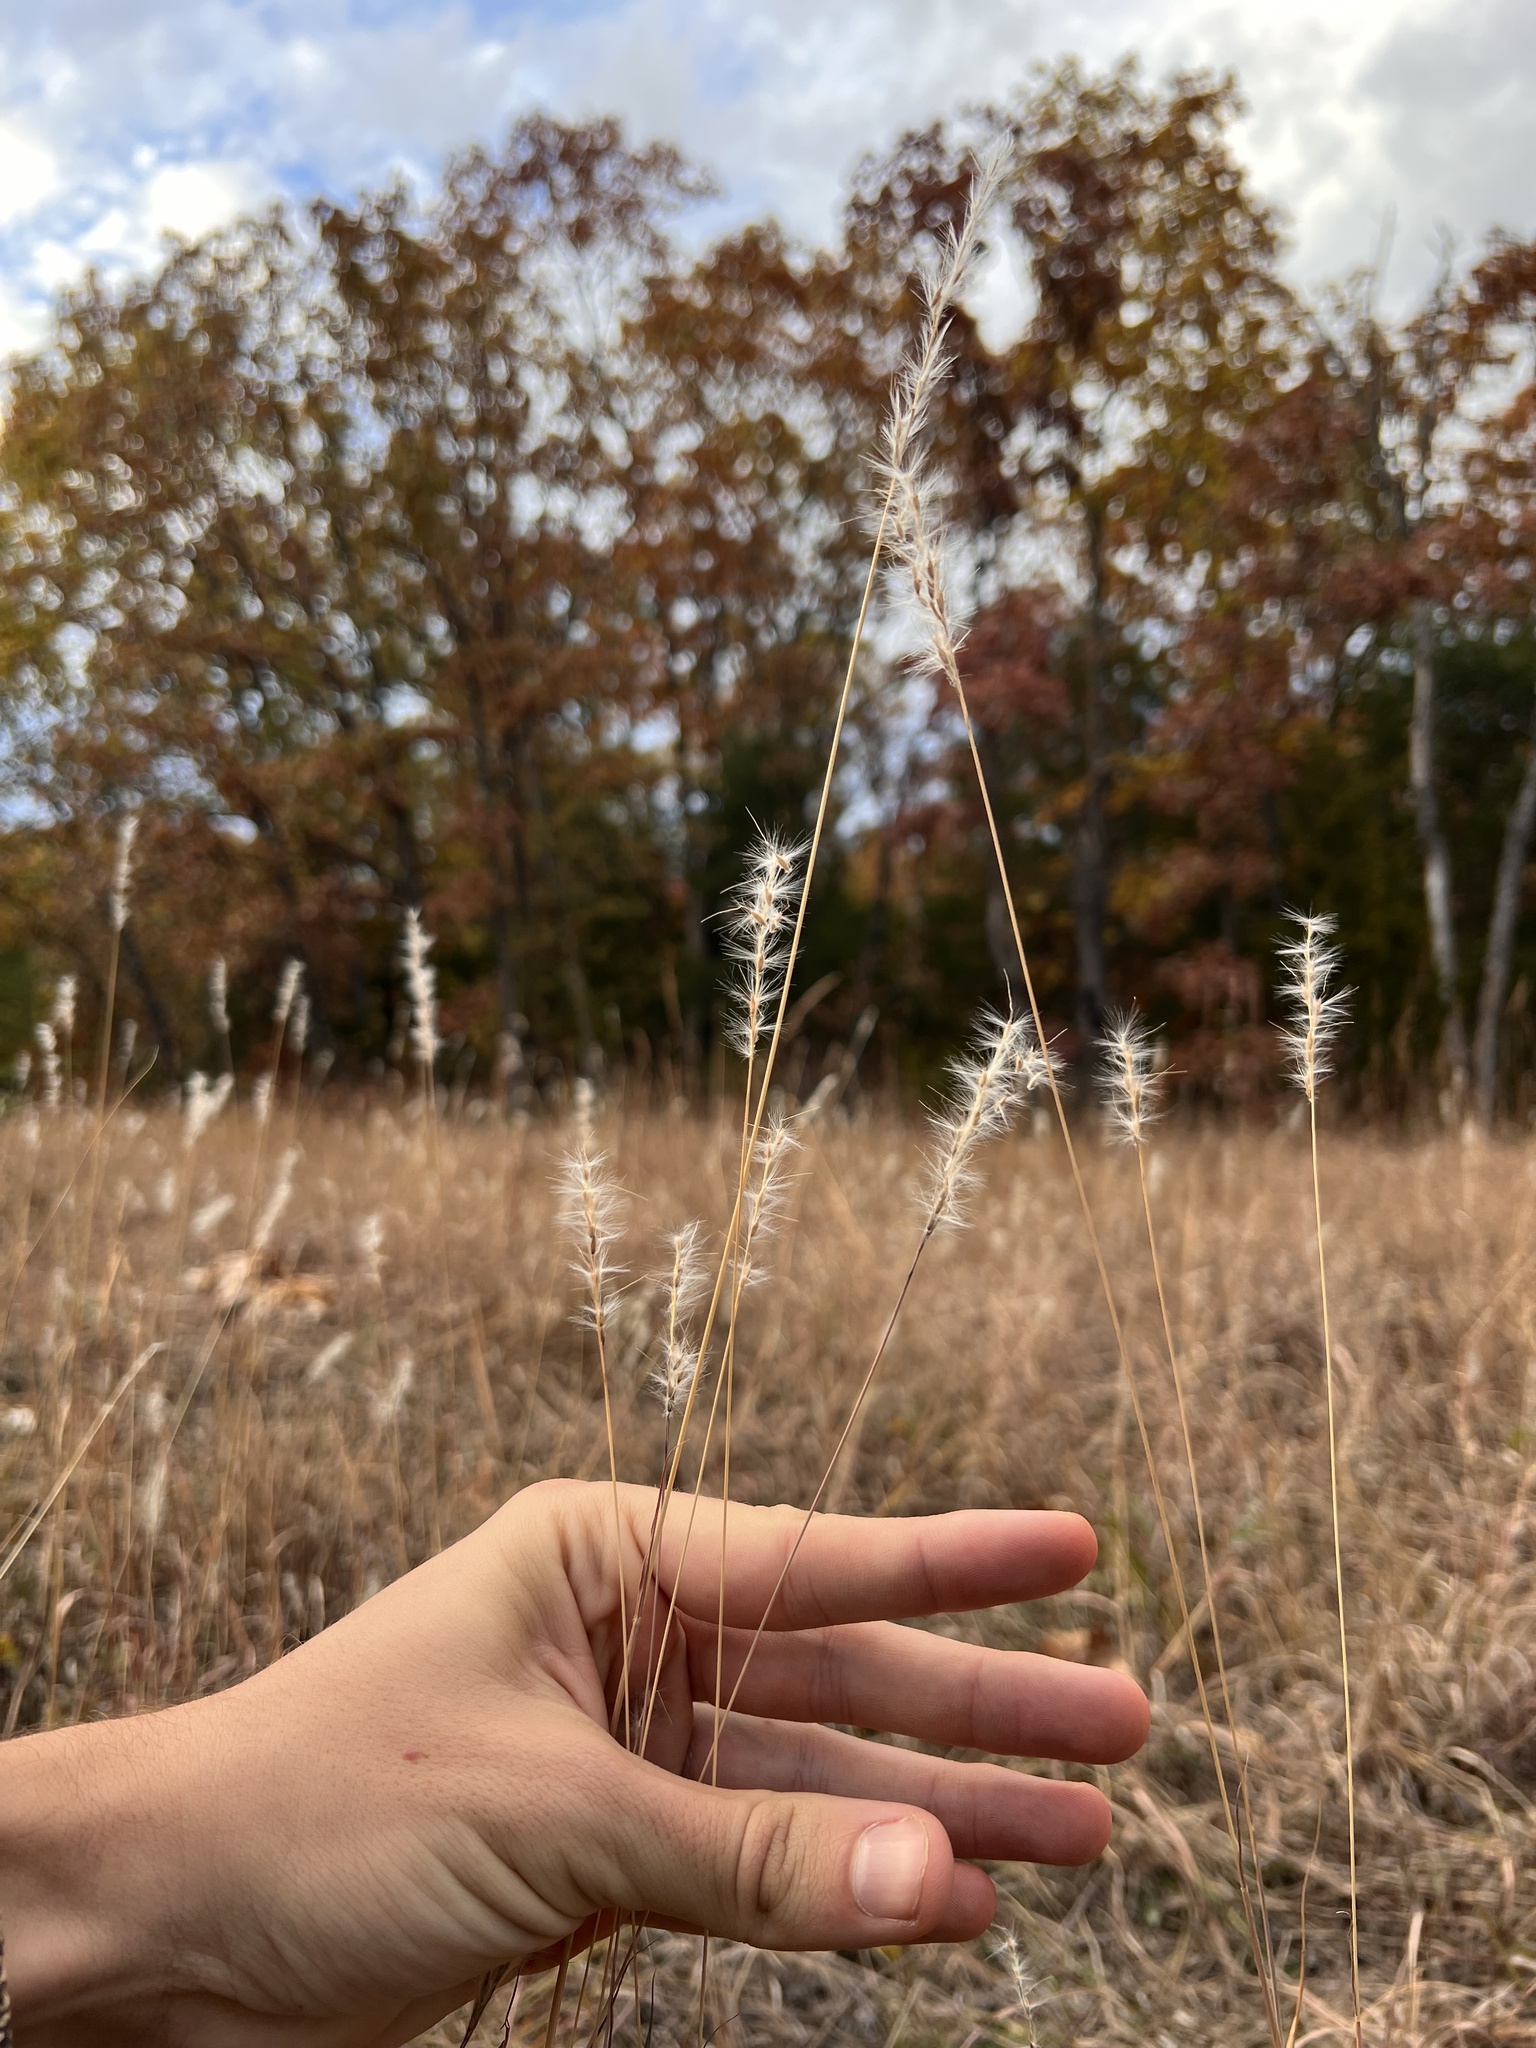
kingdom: Plantae
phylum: Tracheophyta
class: Liliopsida
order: Poales
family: Poaceae
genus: Bothriochloa
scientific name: Bothriochloa torreyana
